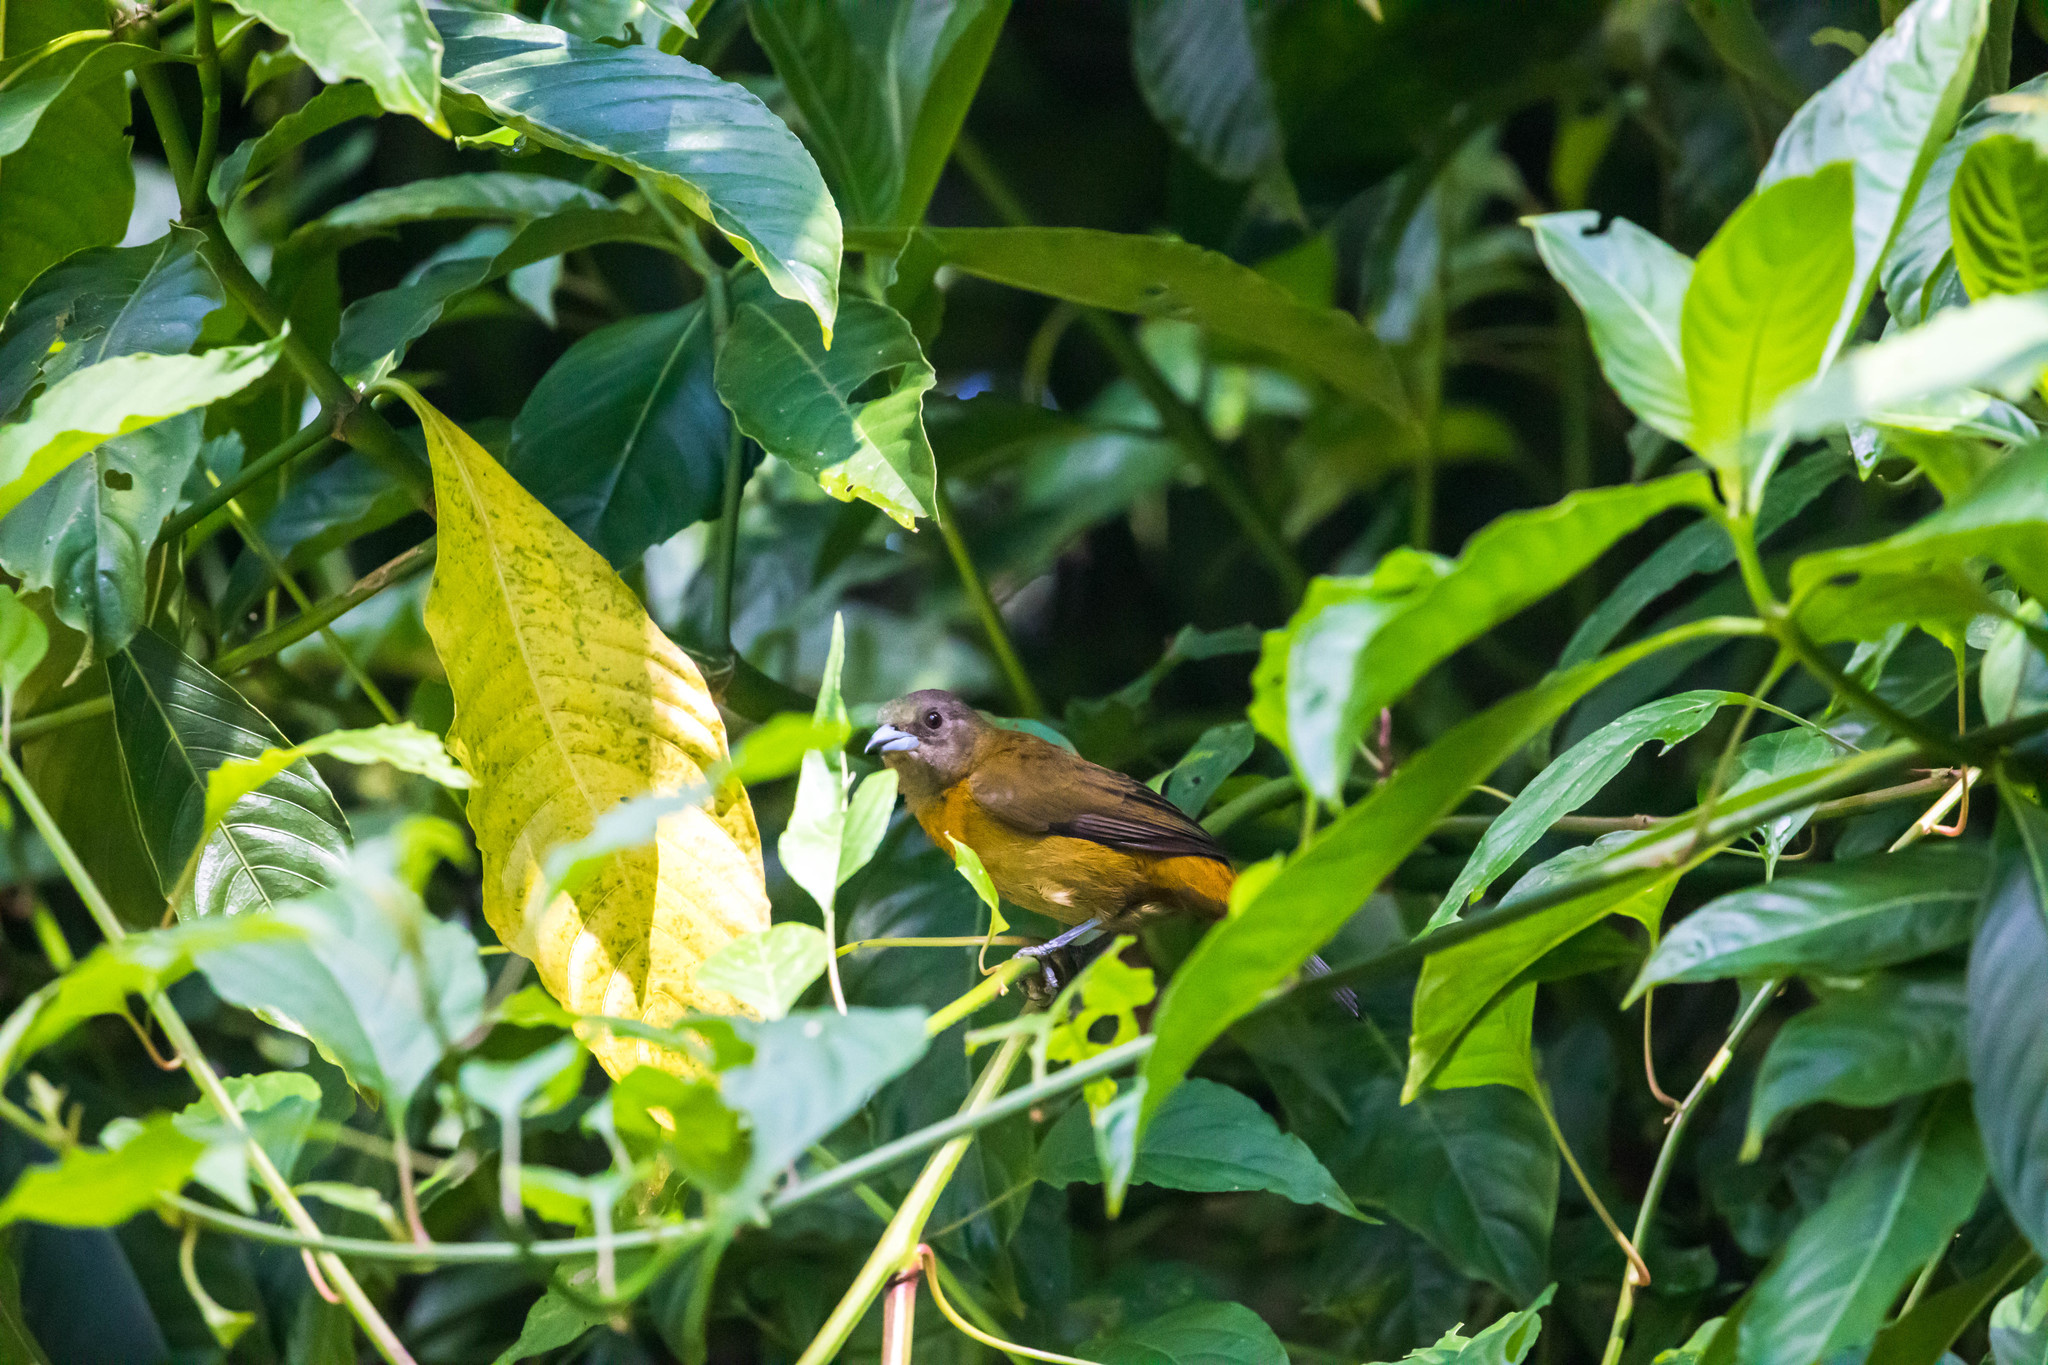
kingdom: Animalia
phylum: Chordata
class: Aves
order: Passeriformes
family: Thraupidae
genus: Ramphocelus
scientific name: Ramphocelus passerinii
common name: Passerini's tanager
